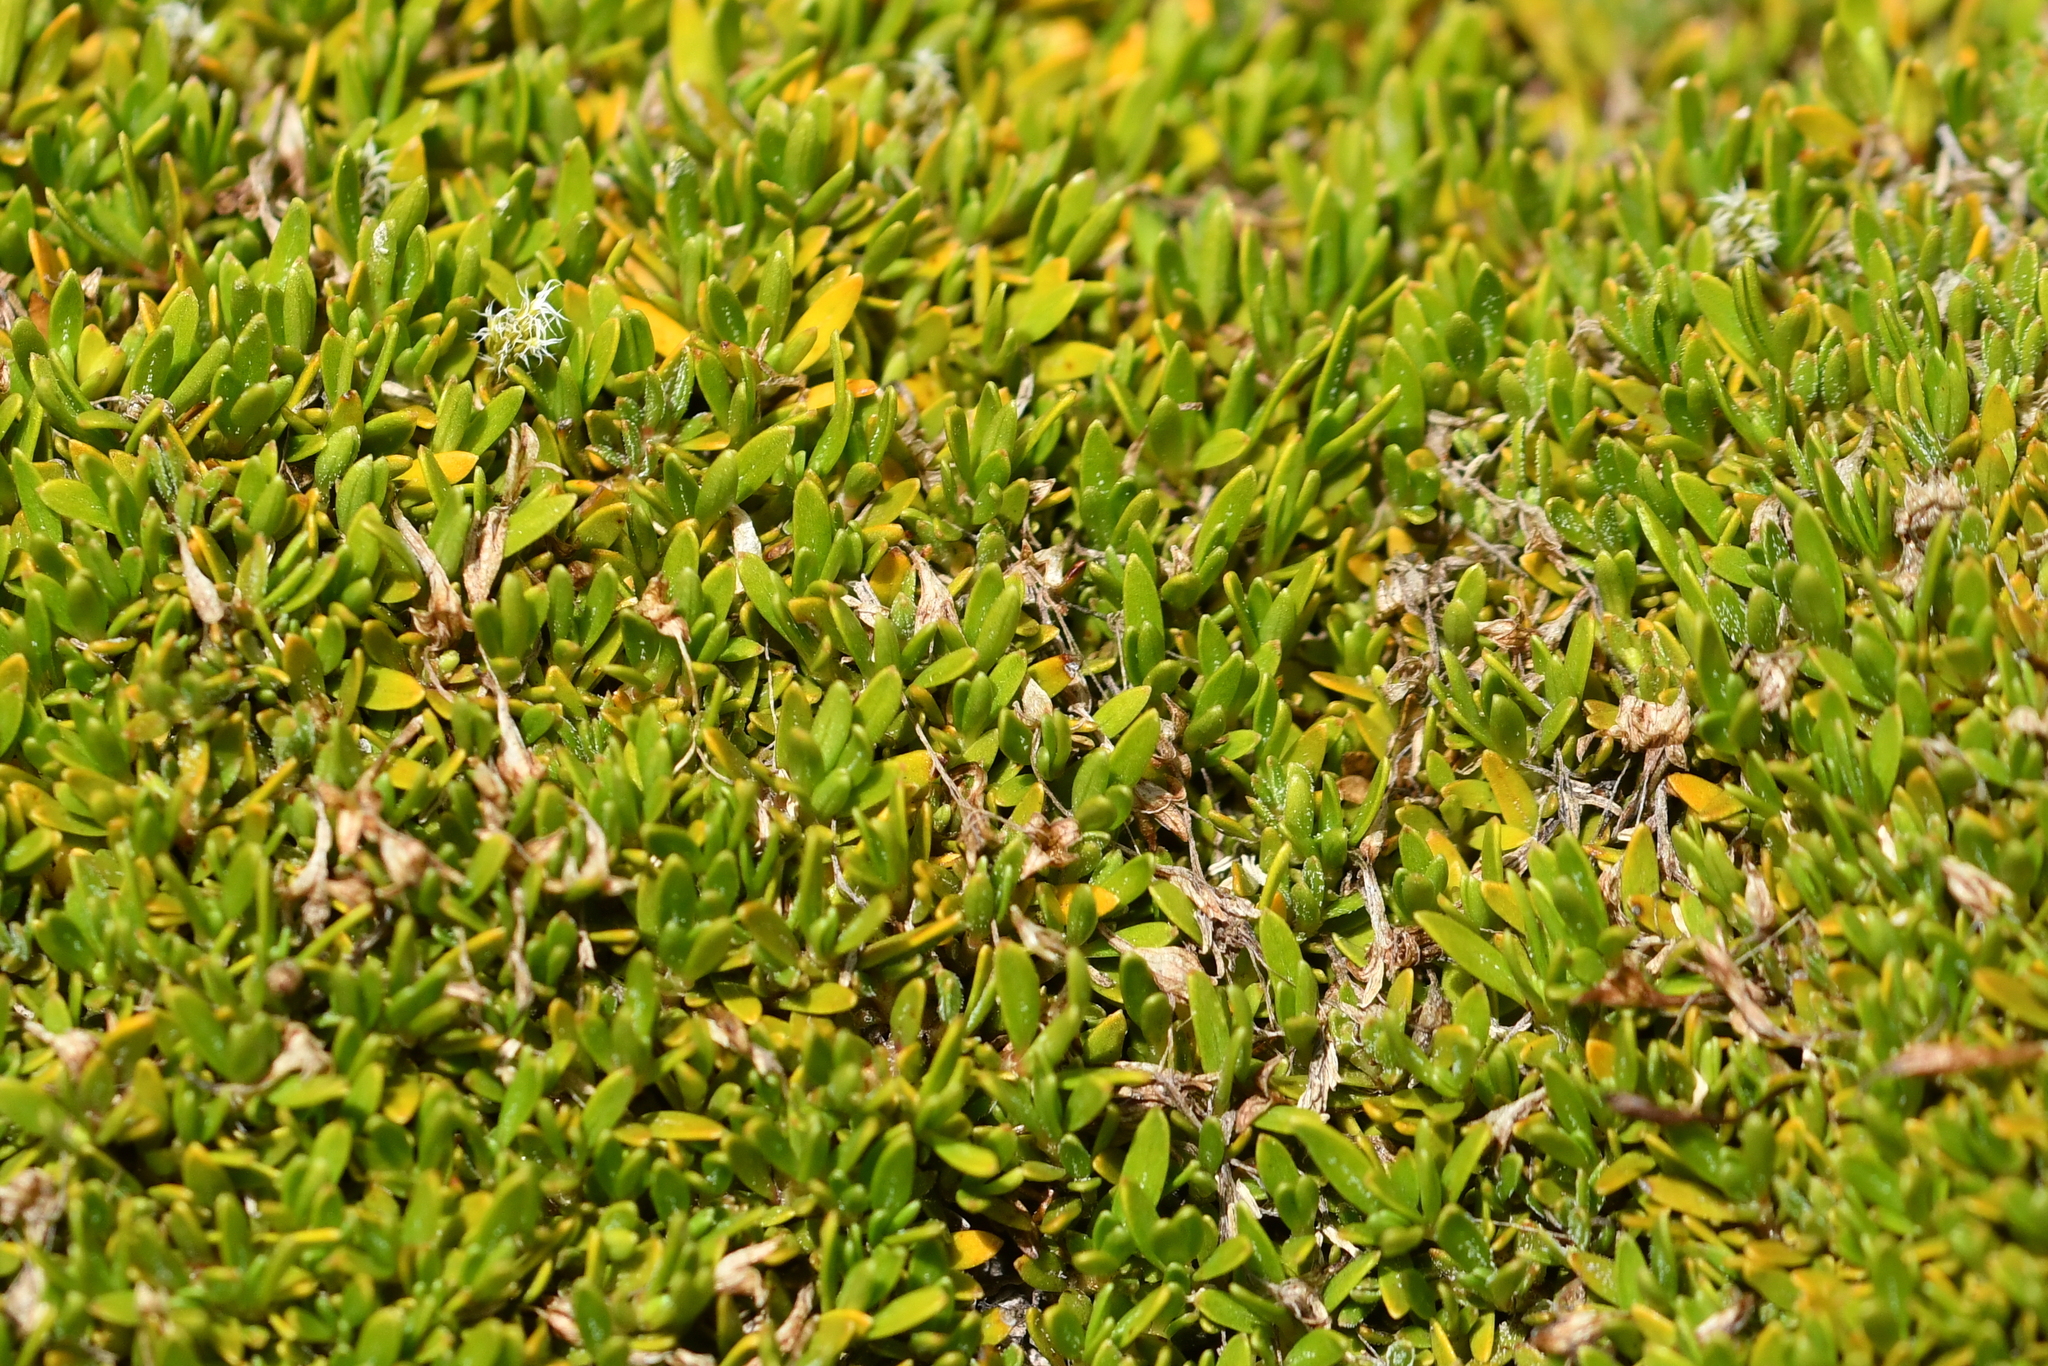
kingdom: Plantae
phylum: Tracheophyta
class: Magnoliopsida
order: Gentianales
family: Rubiaceae
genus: Coprosma
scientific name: Coprosma petriei
